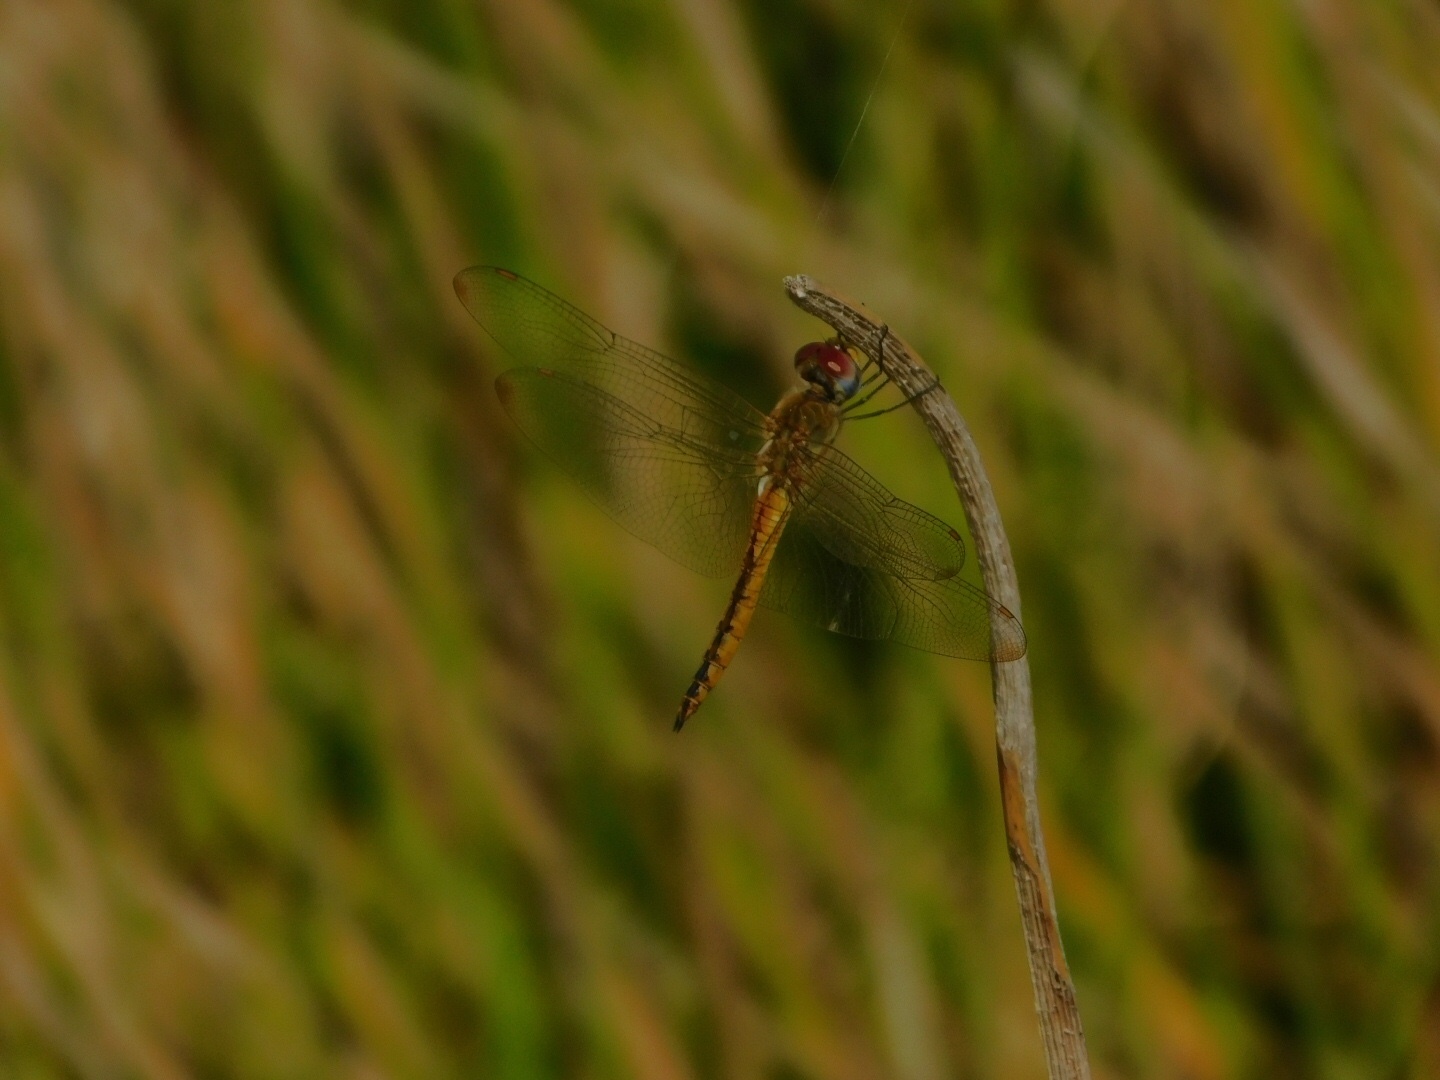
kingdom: Animalia
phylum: Arthropoda
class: Insecta
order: Odonata
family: Libellulidae
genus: Pantala
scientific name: Pantala flavescens
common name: Wandering glider
